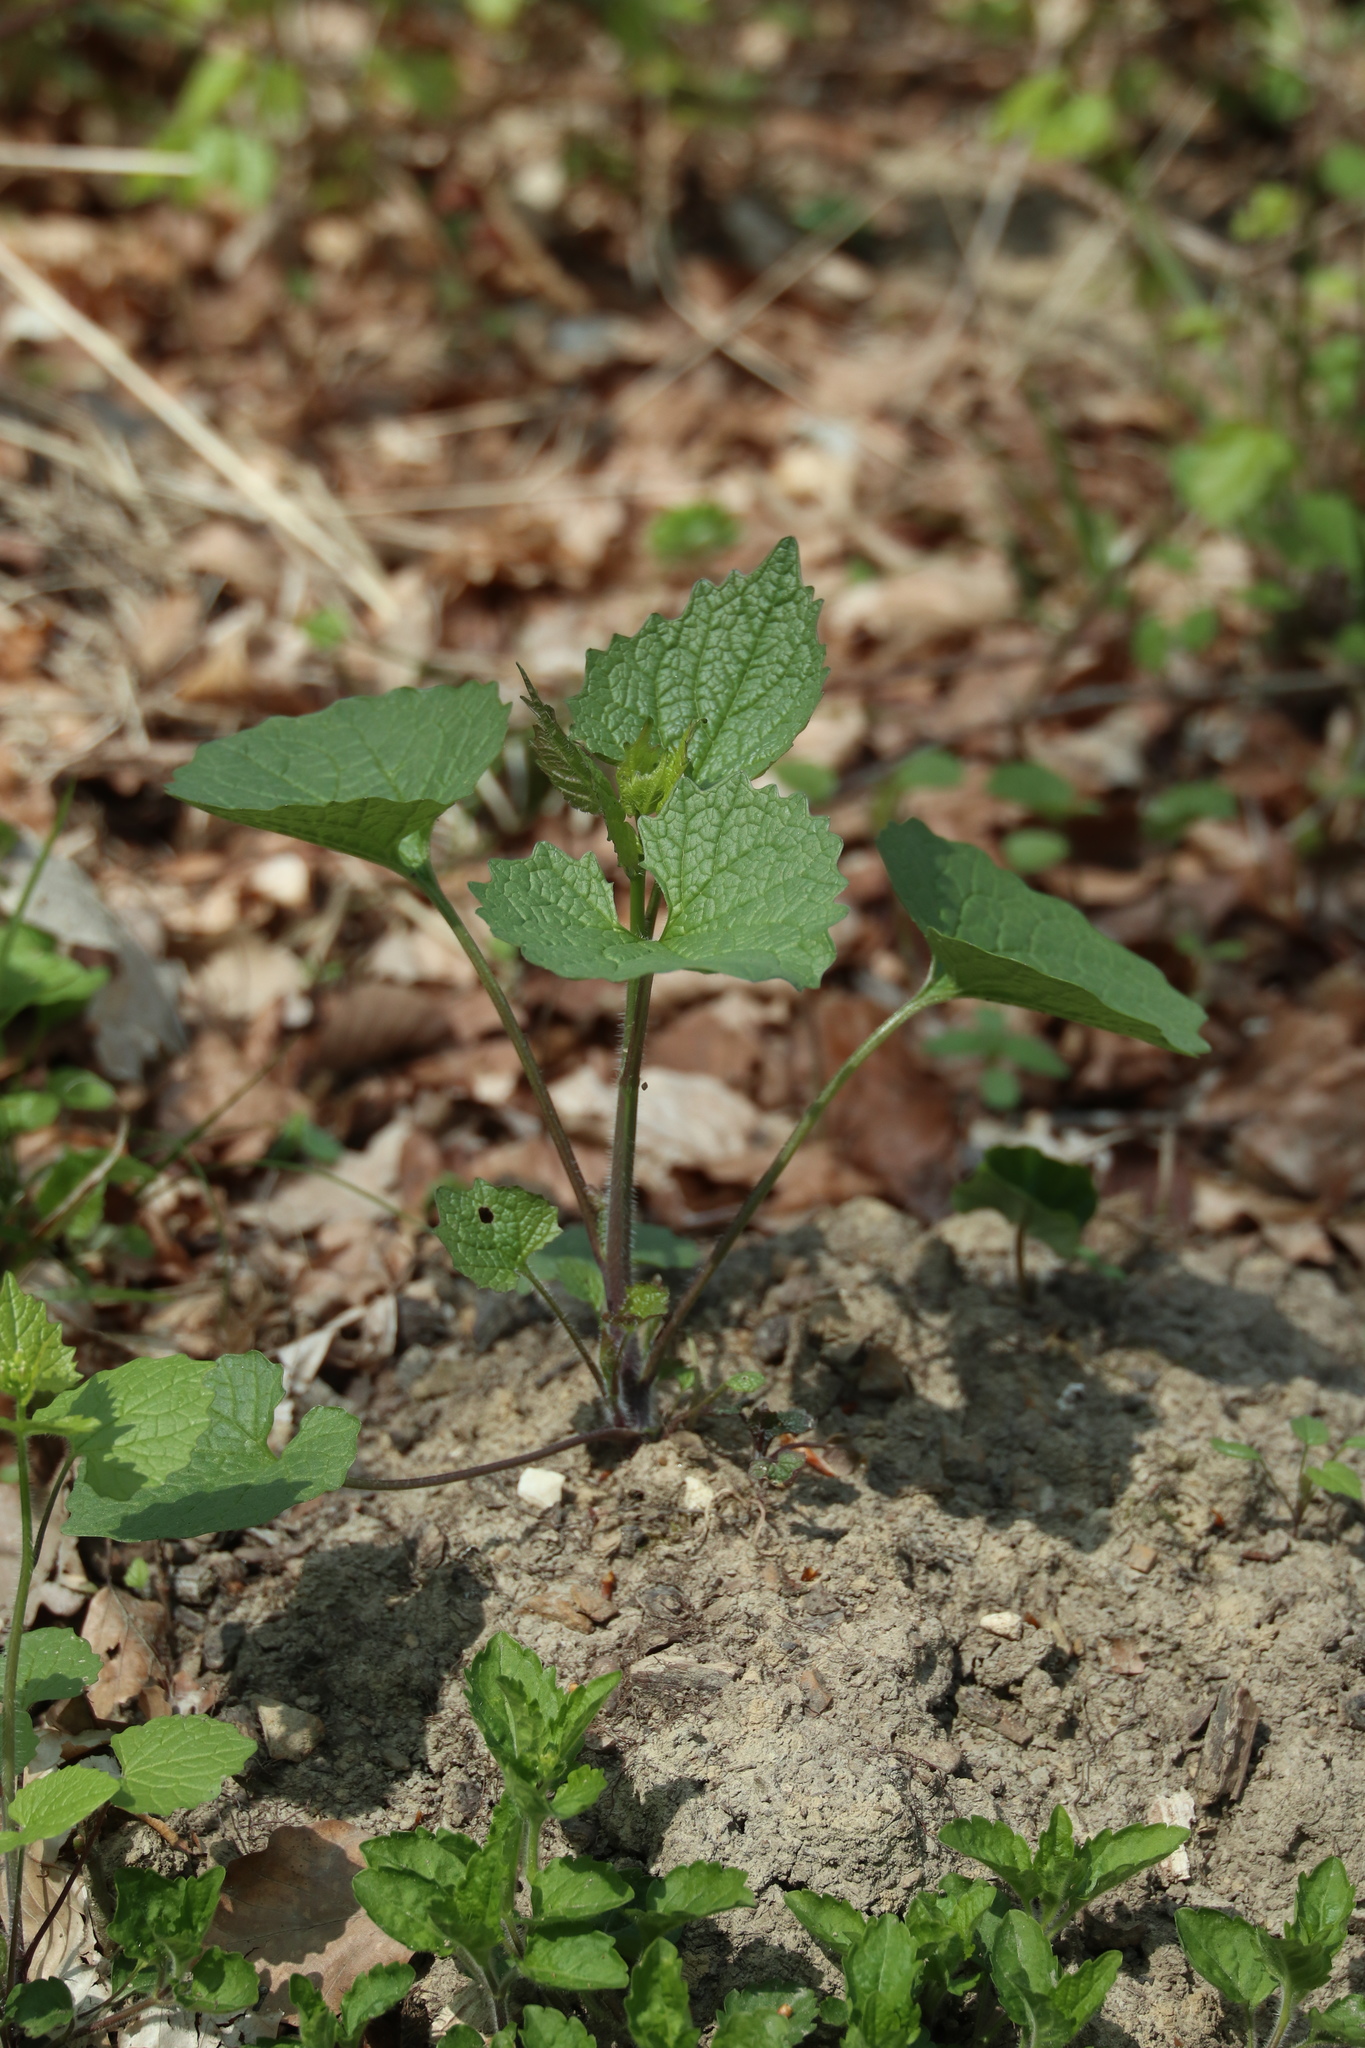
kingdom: Plantae
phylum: Tracheophyta
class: Magnoliopsida
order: Brassicales
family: Brassicaceae
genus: Alliaria
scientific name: Alliaria petiolata
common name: Garlic mustard
